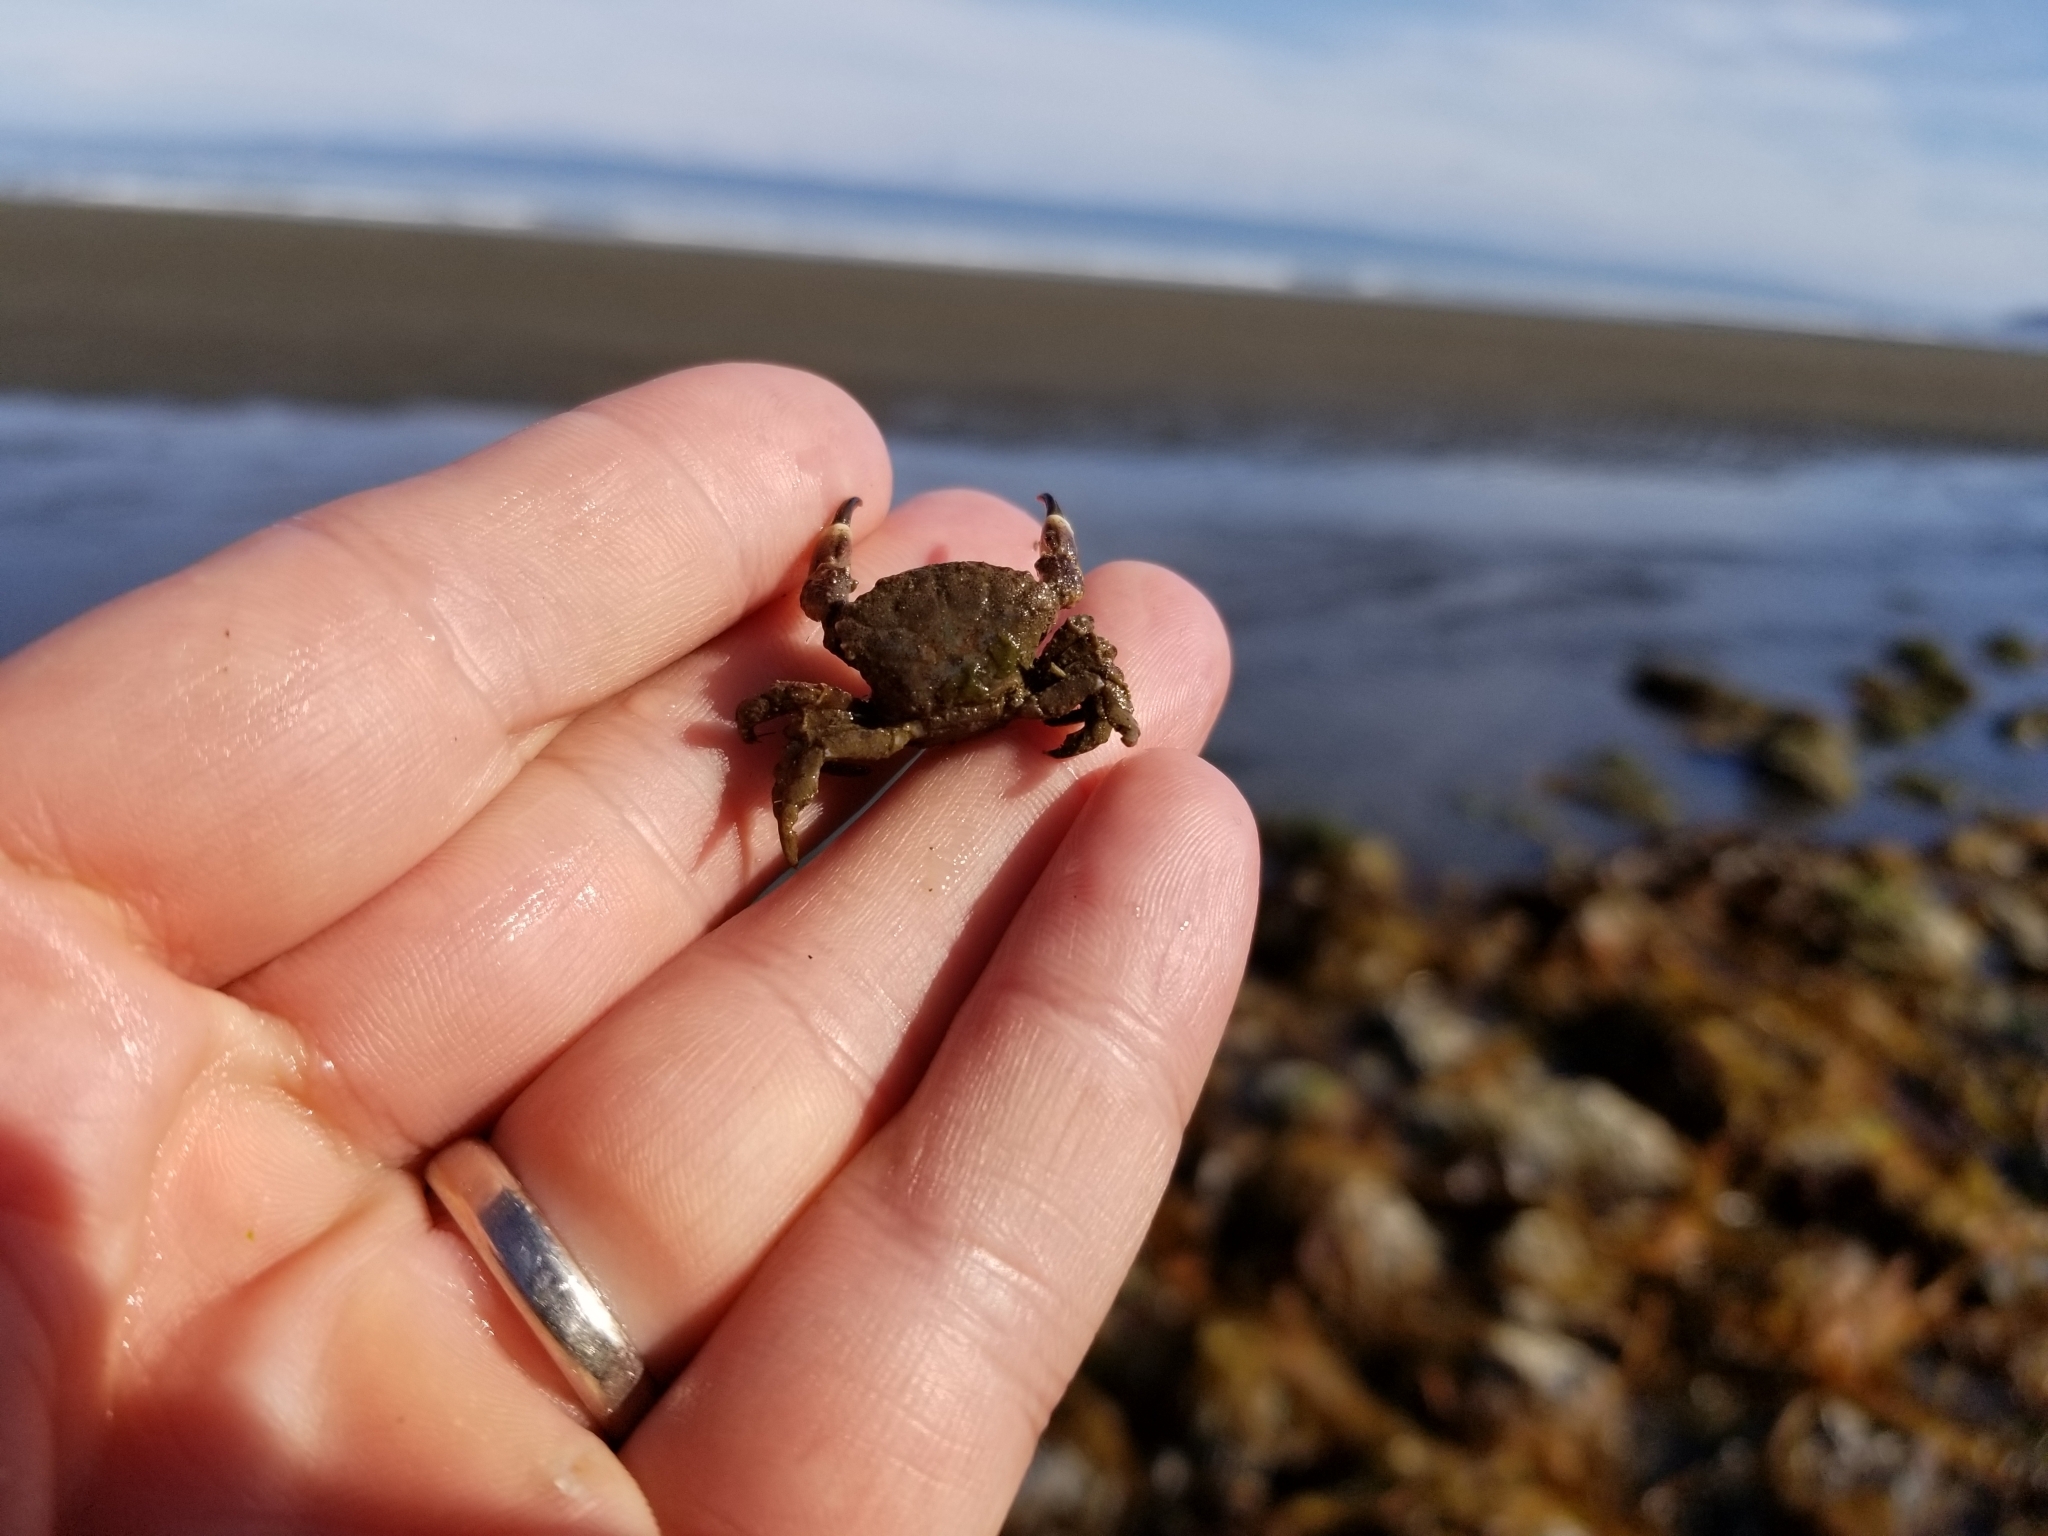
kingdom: Animalia
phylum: Arthropoda
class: Malacostraca
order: Decapoda
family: Panopeidae
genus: Lophopanopeus
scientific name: Lophopanopeus bellus
